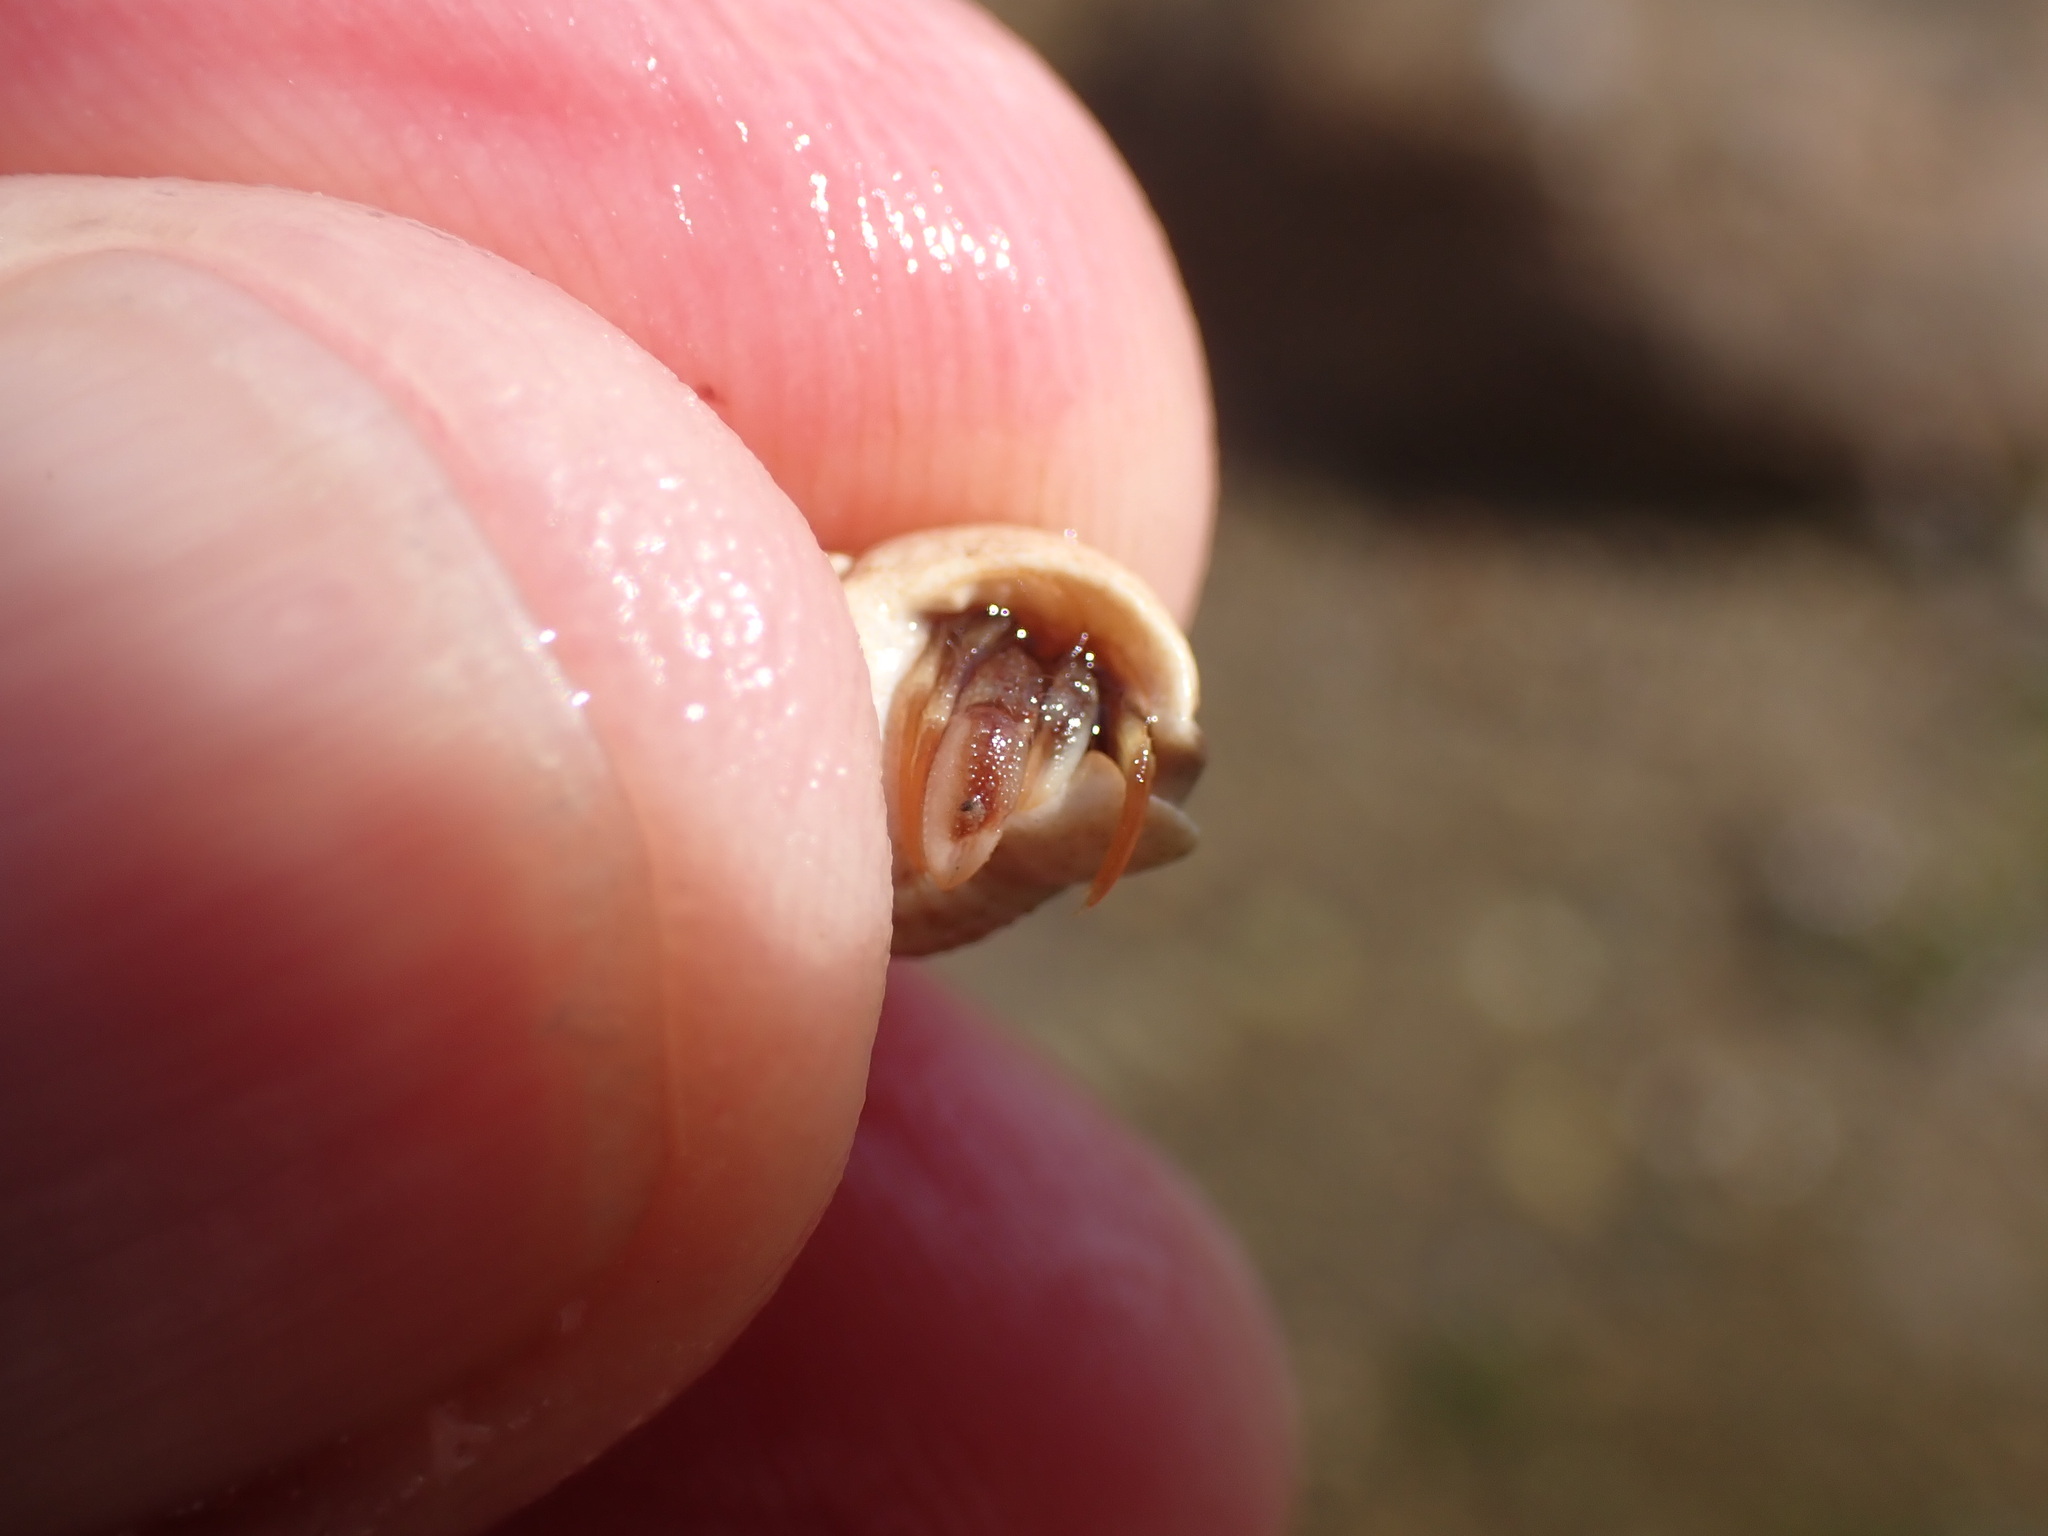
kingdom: Animalia
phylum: Arthropoda
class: Malacostraca
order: Decapoda
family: Paguridae
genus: Pagurus
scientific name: Pagurus bernhardus
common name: Hermit crab
